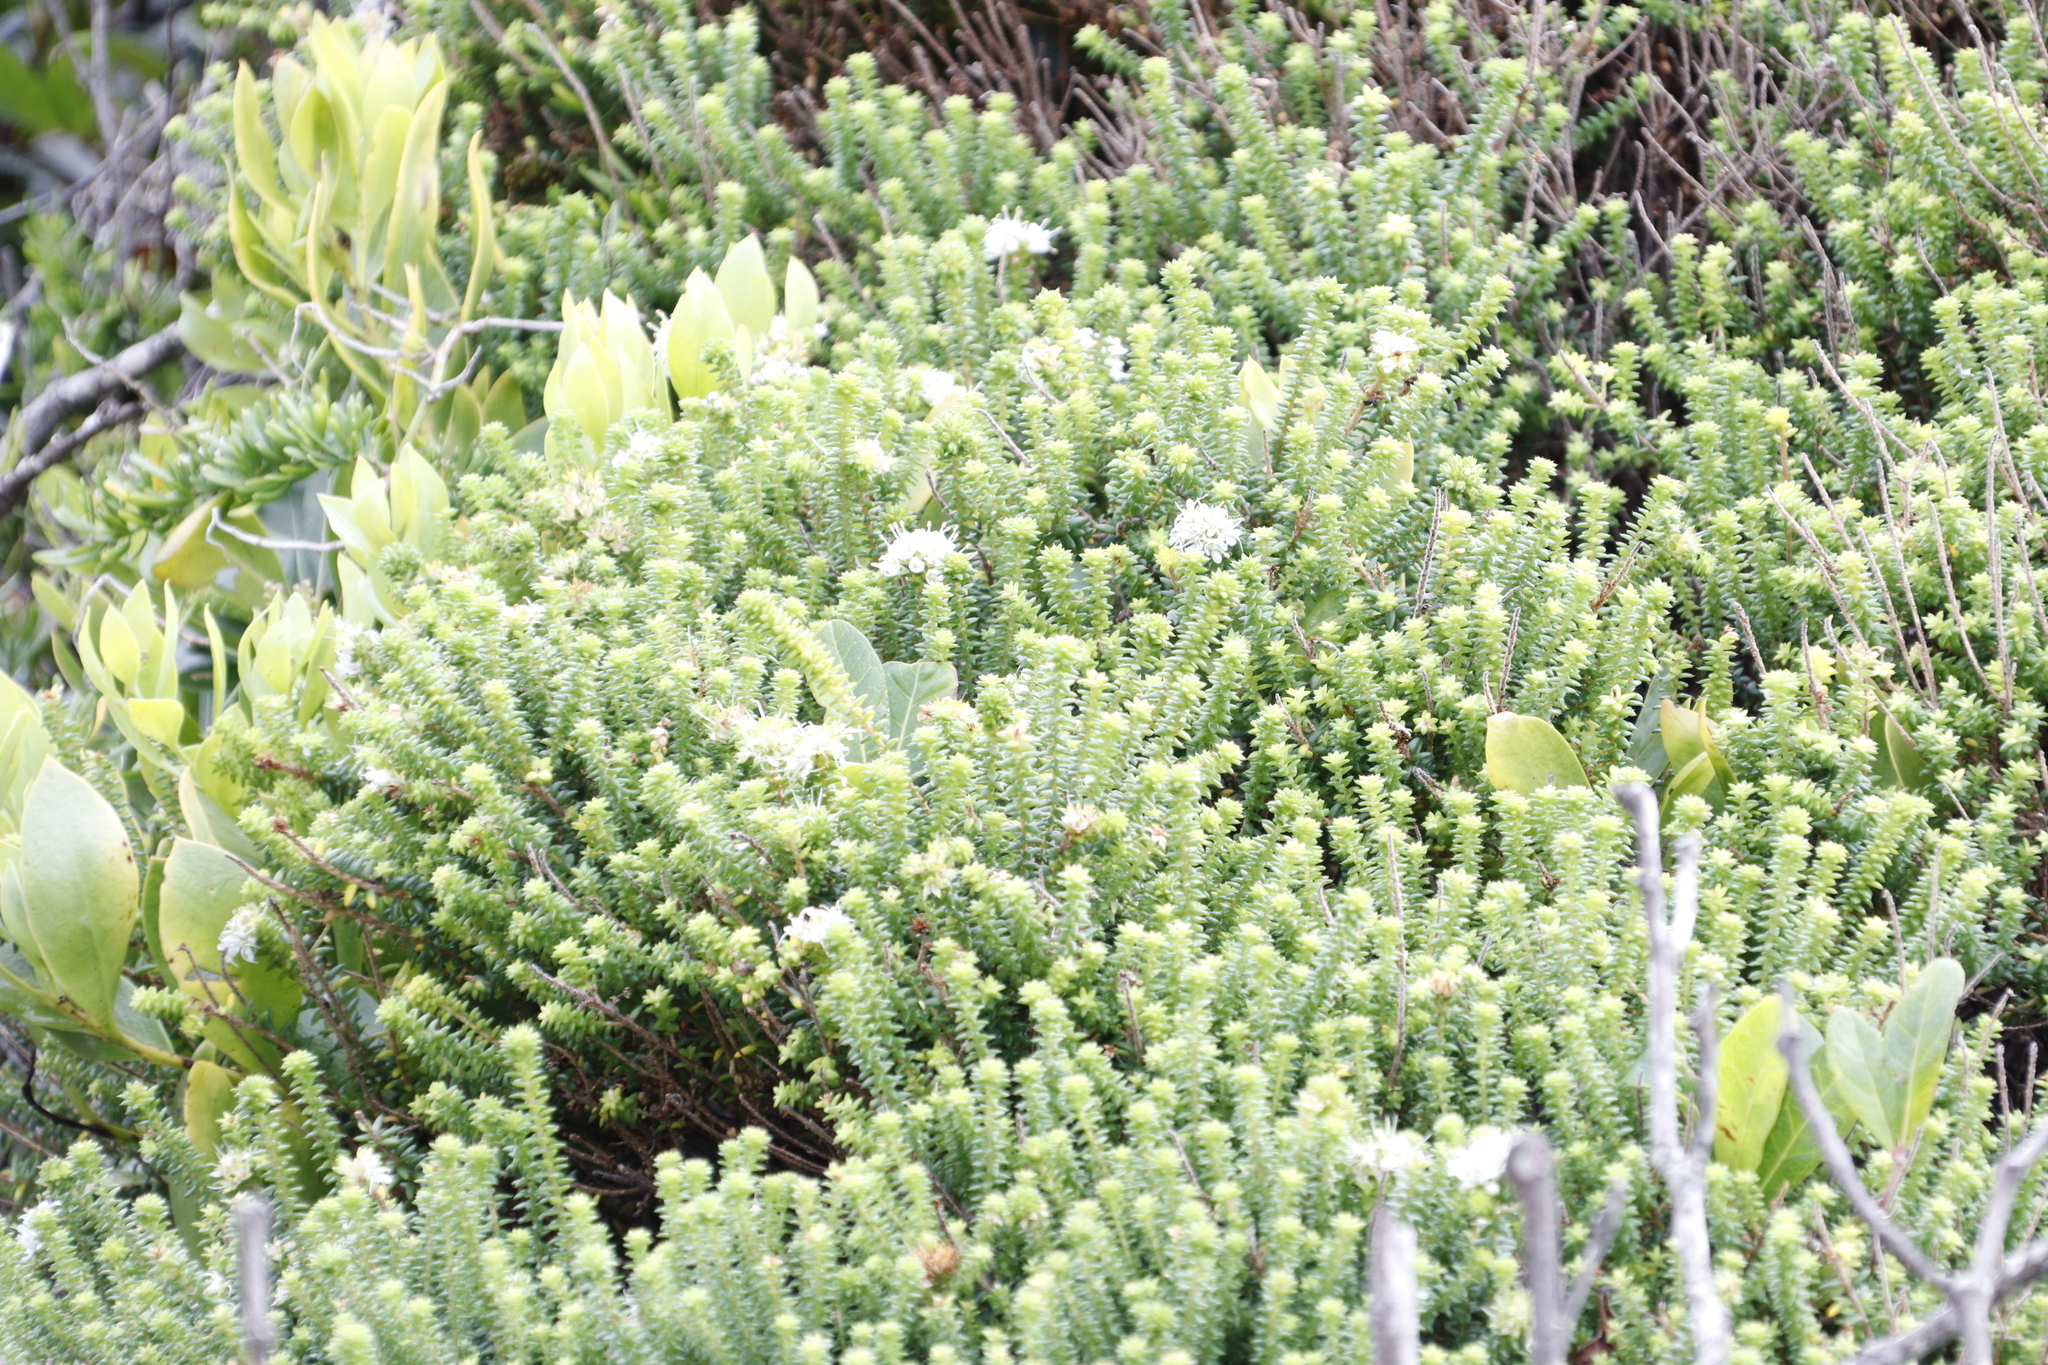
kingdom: Plantae
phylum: Tracheophyta
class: Magnoliopsida
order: Sapindales
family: Rutaceae
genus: Agathosma
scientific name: Agathosma apiculata
